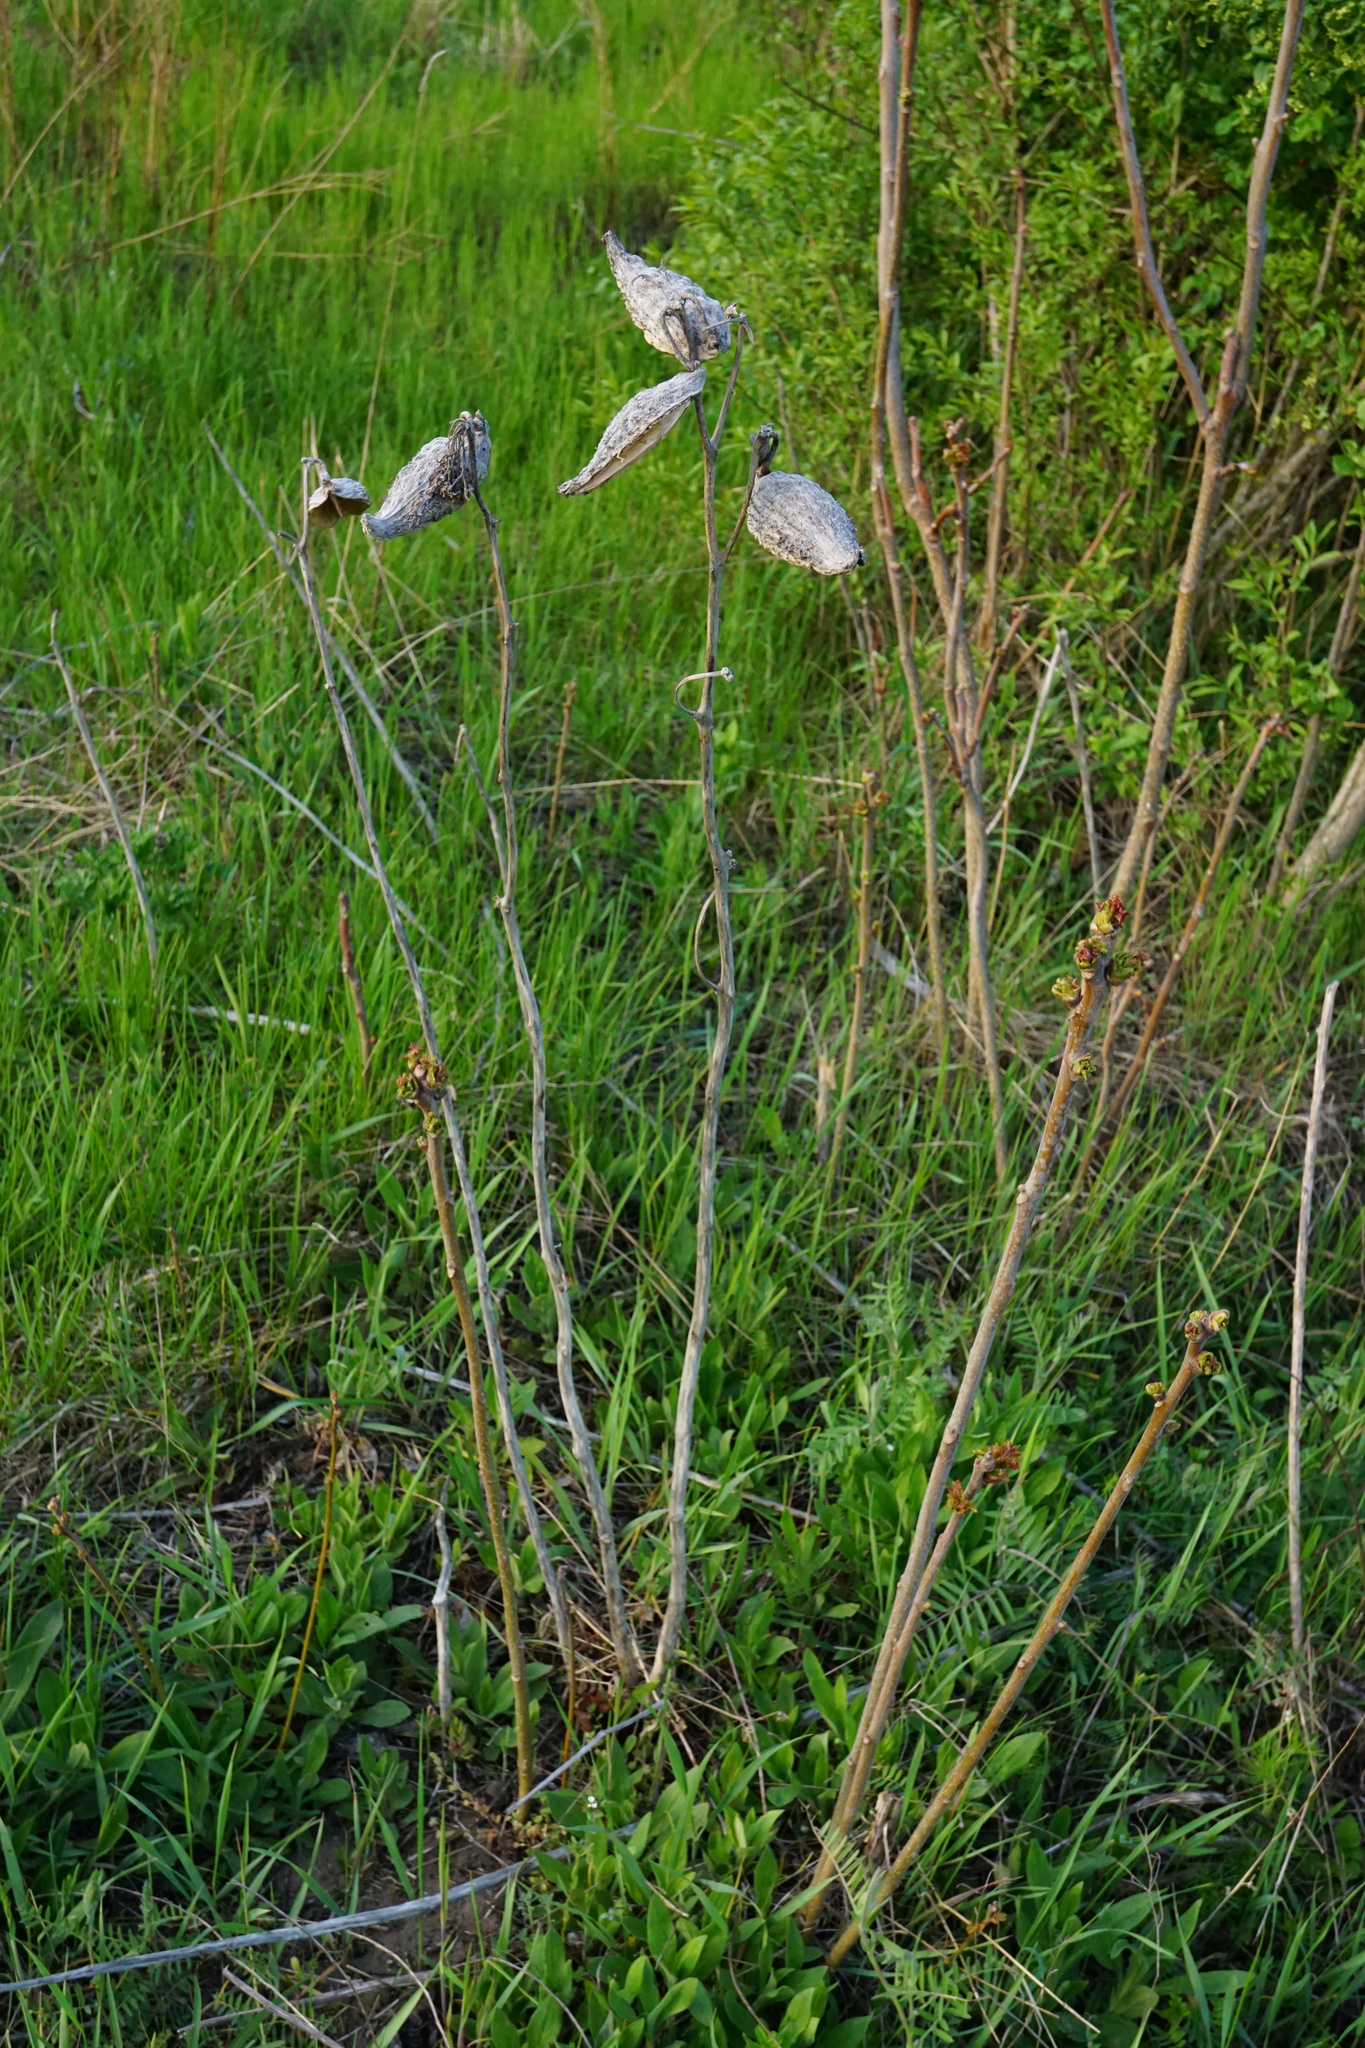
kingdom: Plantae
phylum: Tracheophyta
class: Magnoliopsida
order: Gentianales
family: Apocynaceae
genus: Asclepias
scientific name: Asclepias syriaca
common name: Common milkweed
